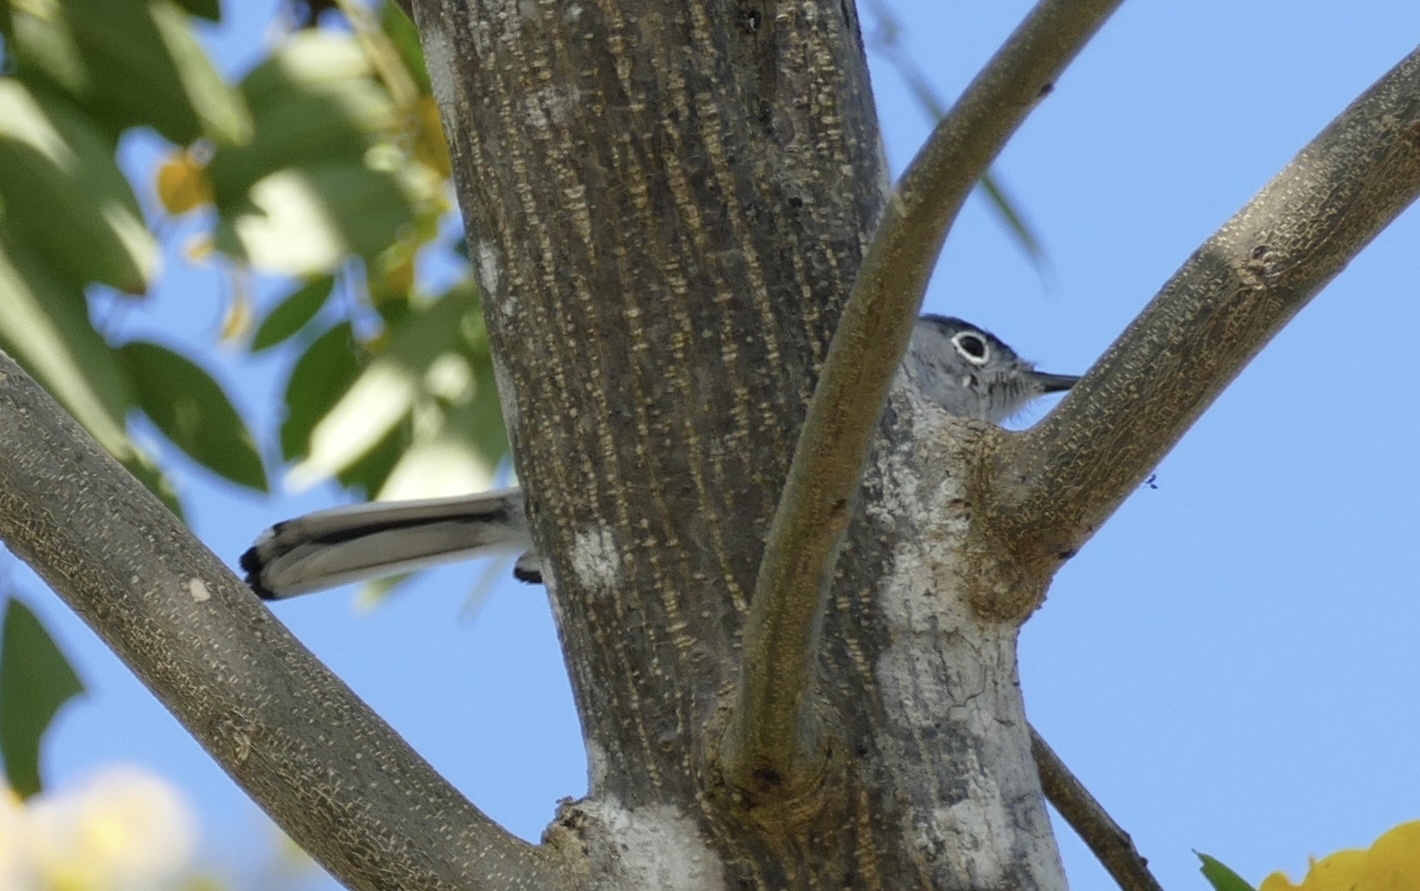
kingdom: Animalia
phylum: Chordata
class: Aves
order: Passeriformes
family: Polioptilidae
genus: Polioptila
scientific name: Polioptila caerulea
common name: Blue-gray gnatcatcher
